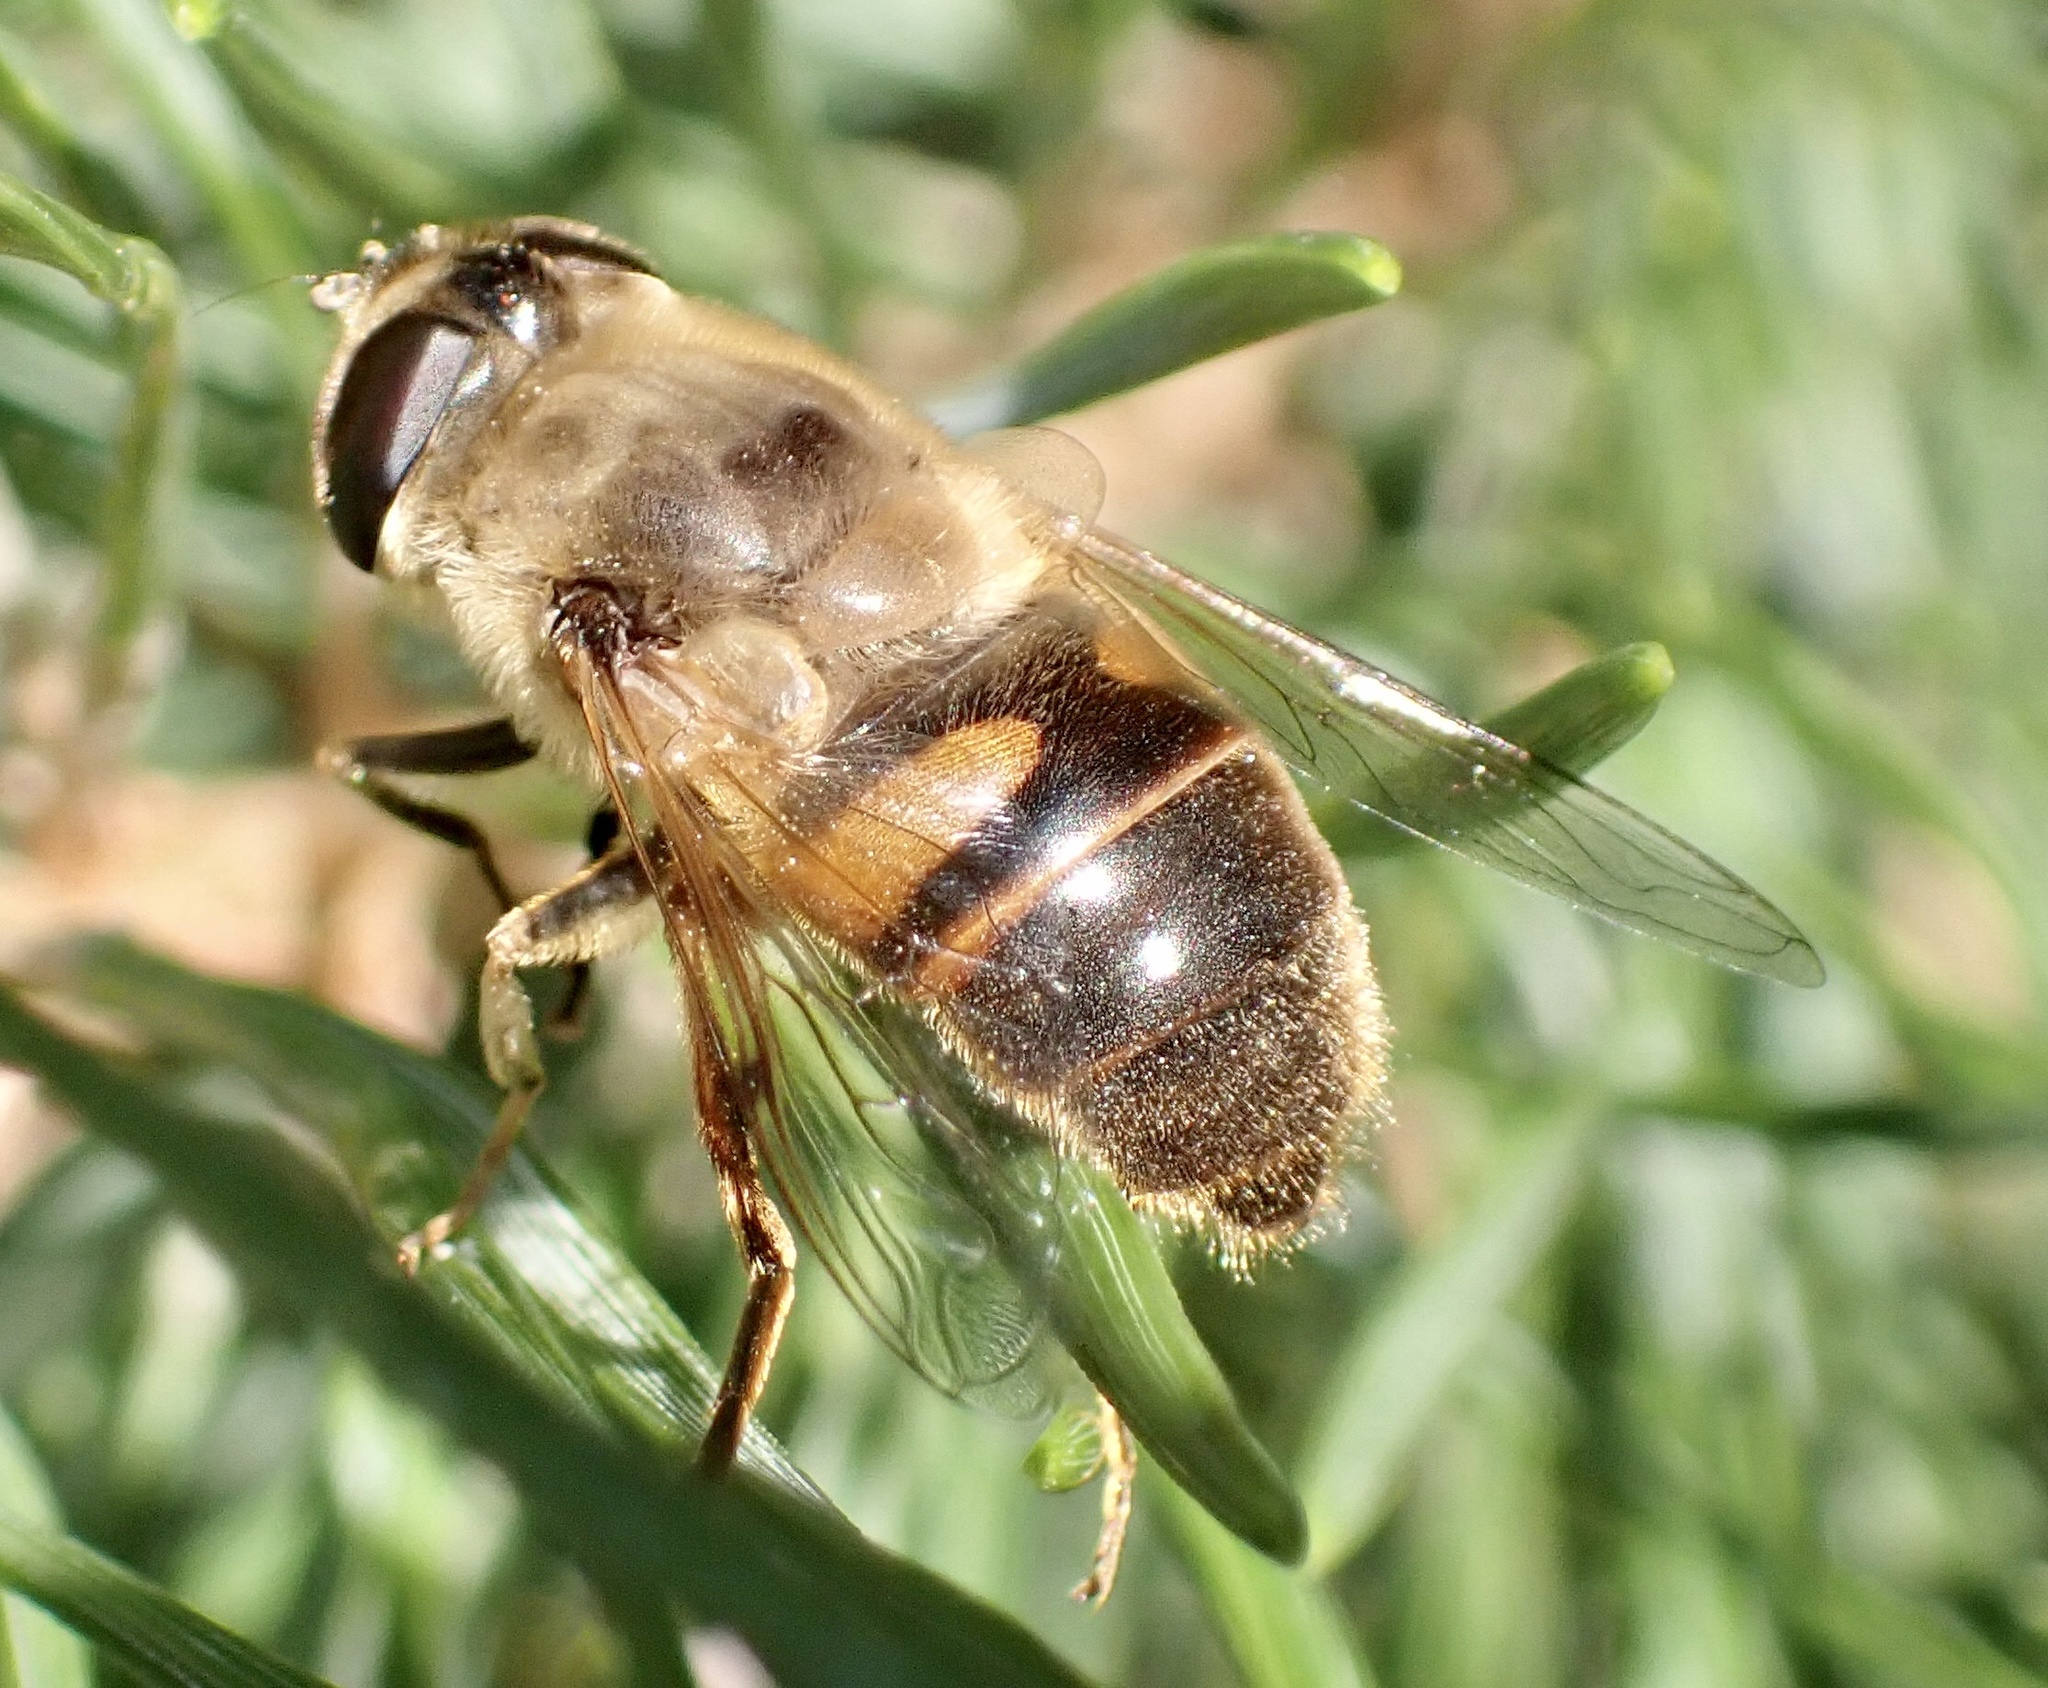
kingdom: Animalia
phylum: Arthropoda
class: Insecta
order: Diptera
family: Syrphidae
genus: Eristalis
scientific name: Eristalis tenax
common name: Drone fly
